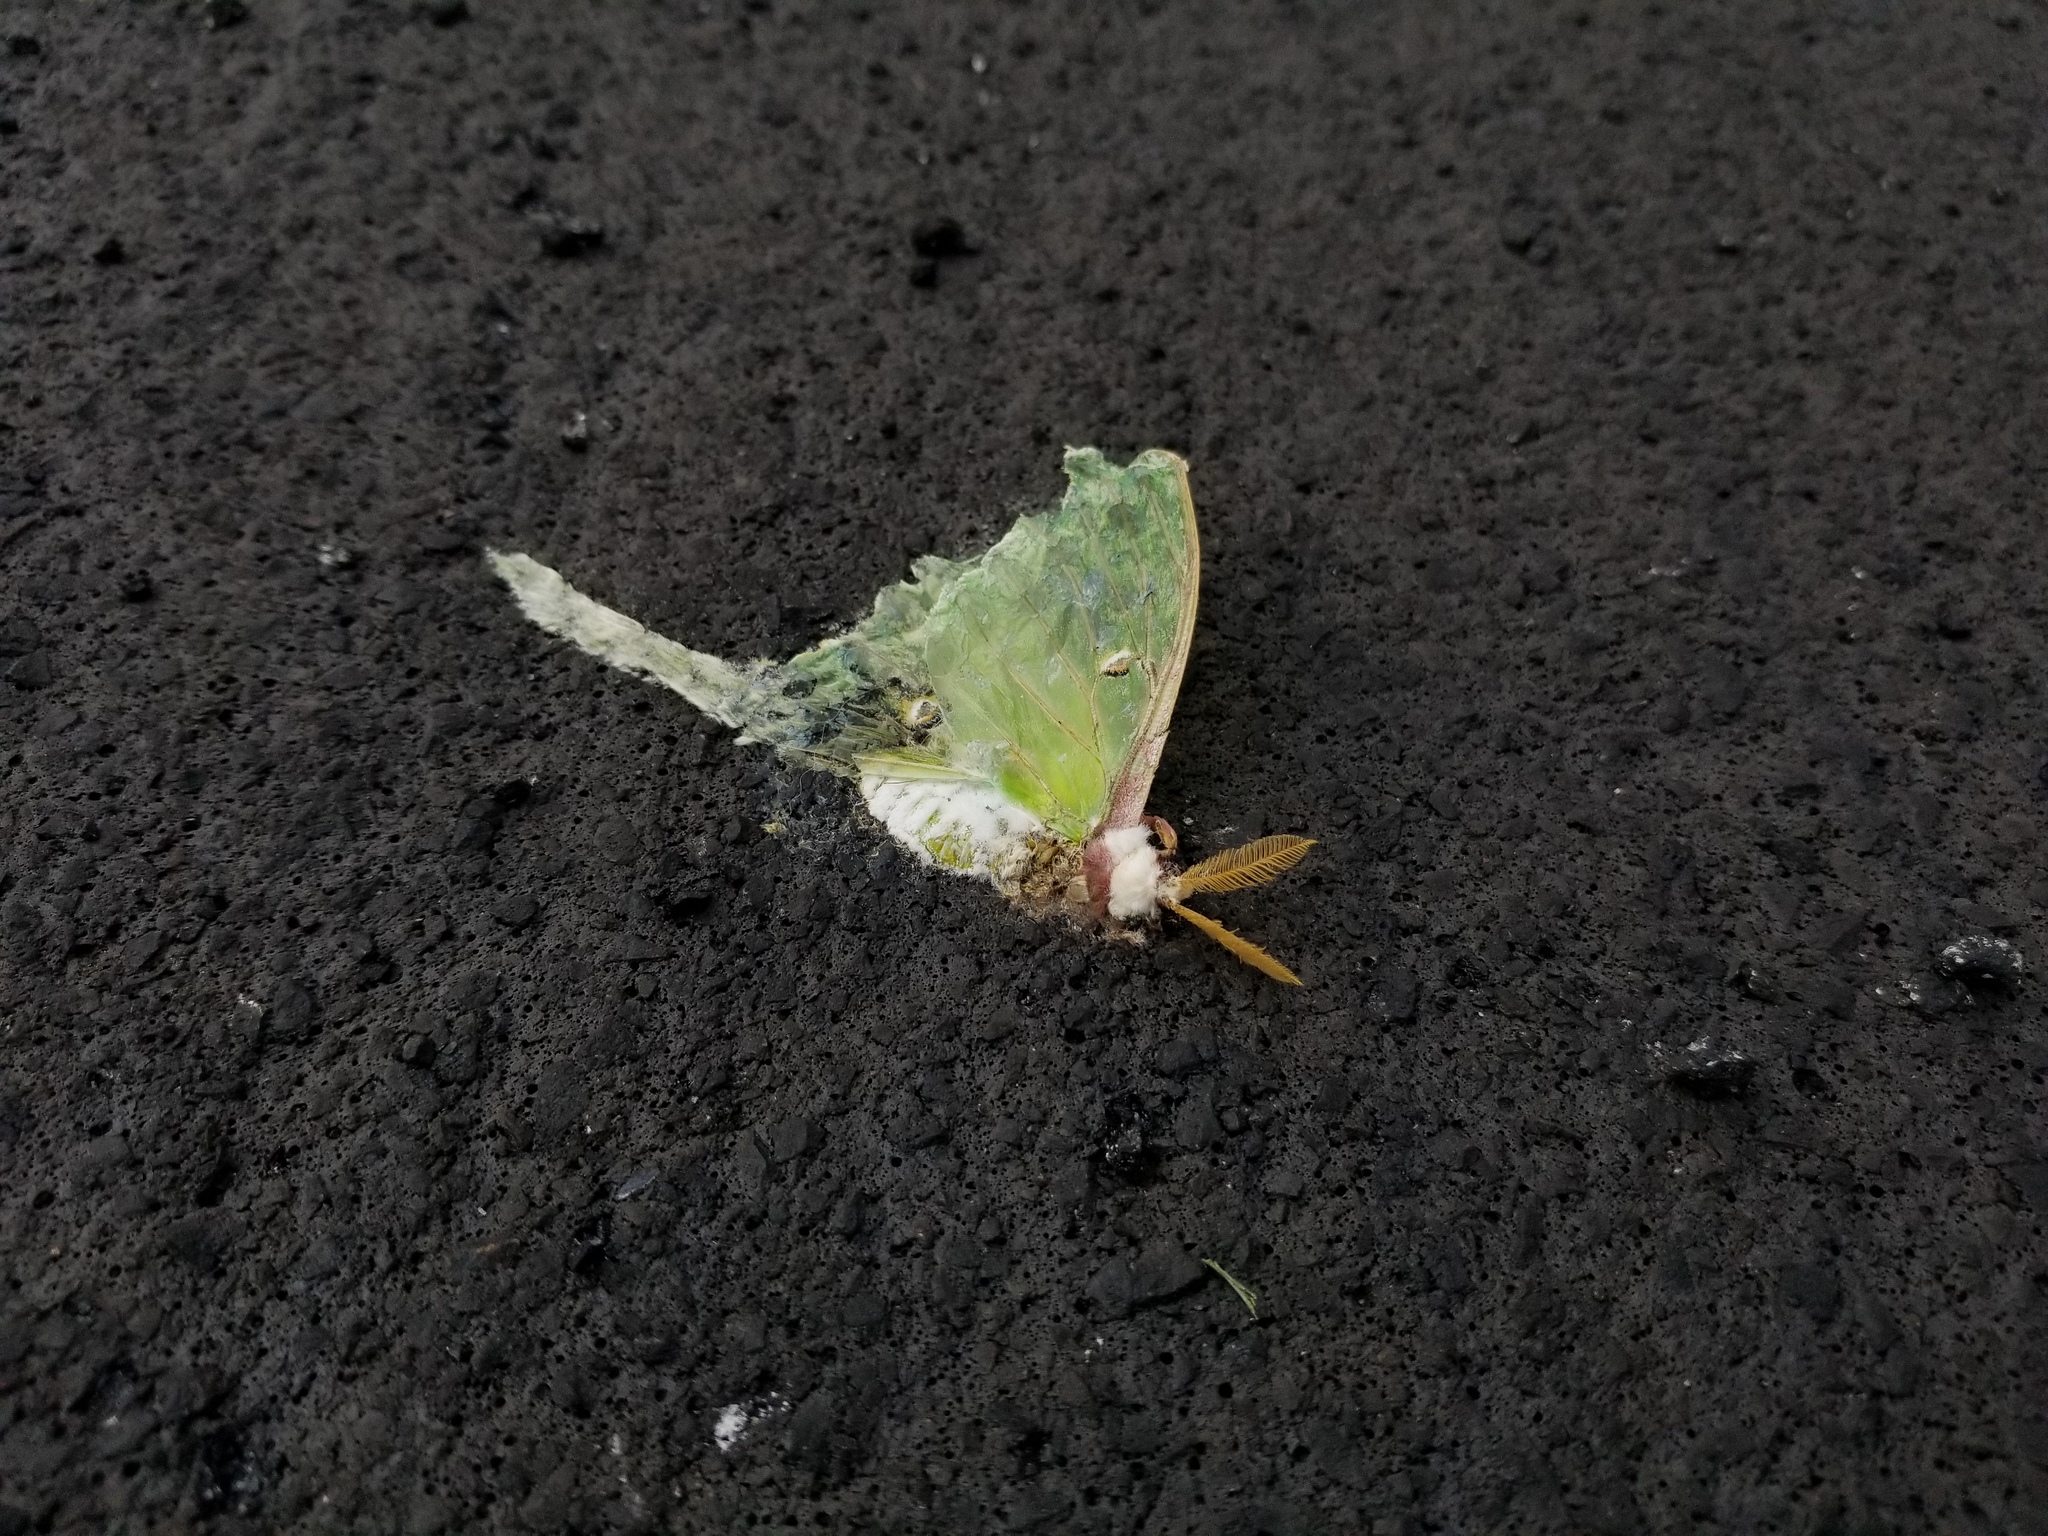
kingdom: Animalia
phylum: Arthropoda
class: Insecta
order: Lepidoptera
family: Saturniidae
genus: Actias
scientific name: Actias luna
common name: Luna moth
